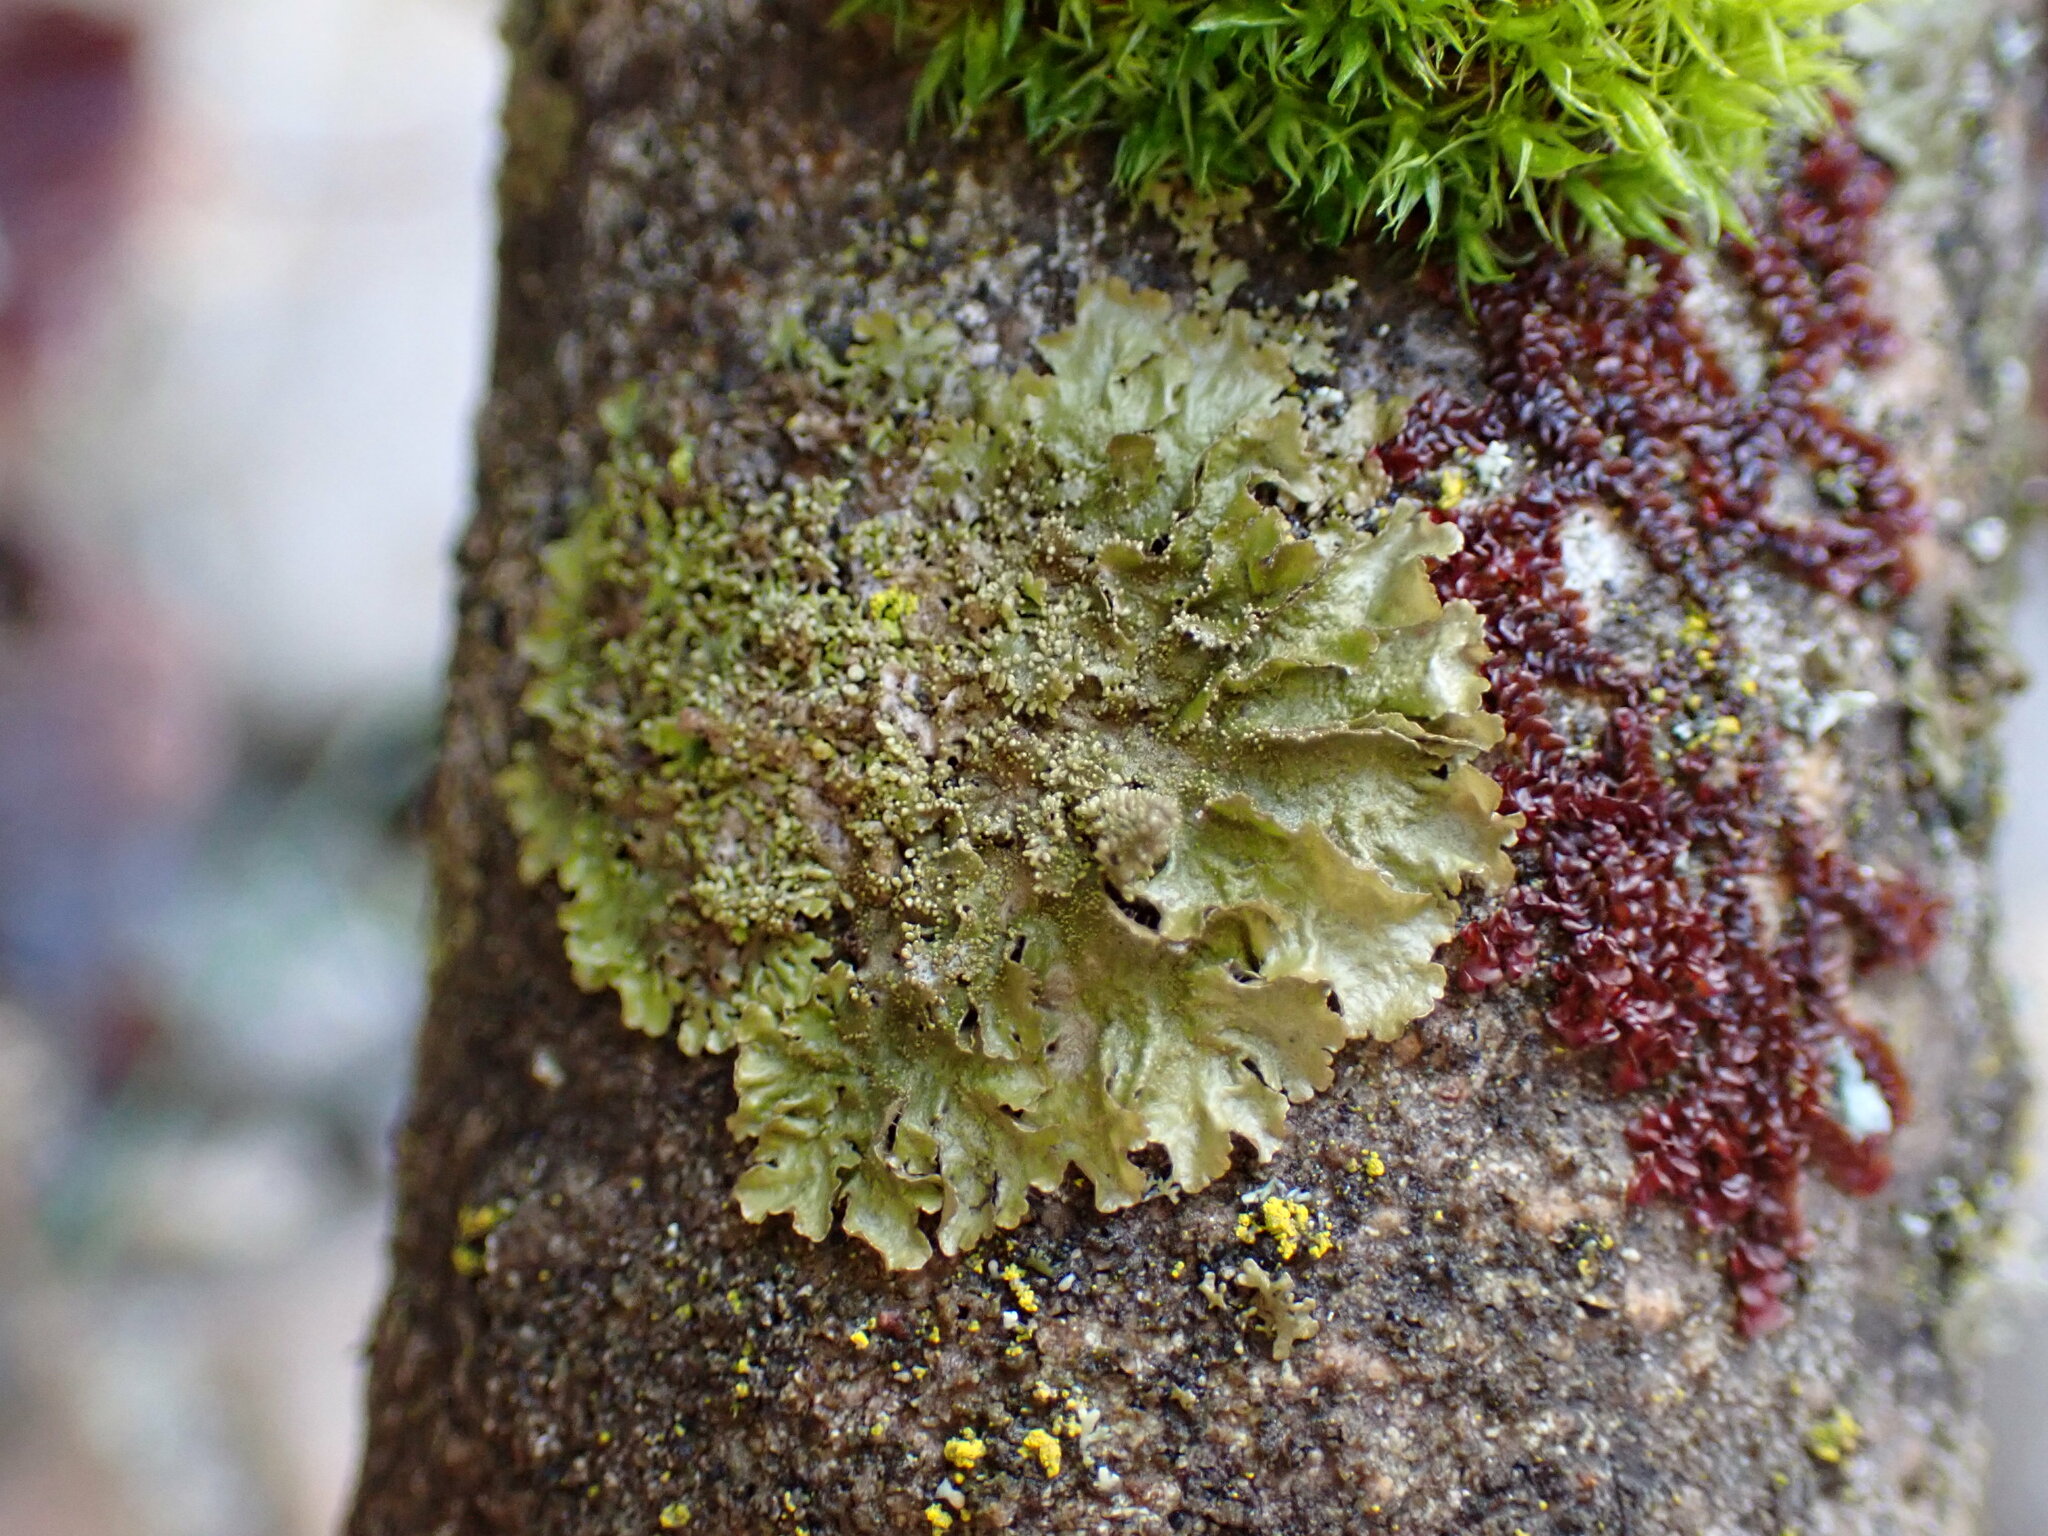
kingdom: Fungi
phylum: Ascomycota
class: Lecanoromycetes
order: Lecanorales
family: Parmeliaceae
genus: Melanohalea
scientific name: Melanohalea exasperatula
